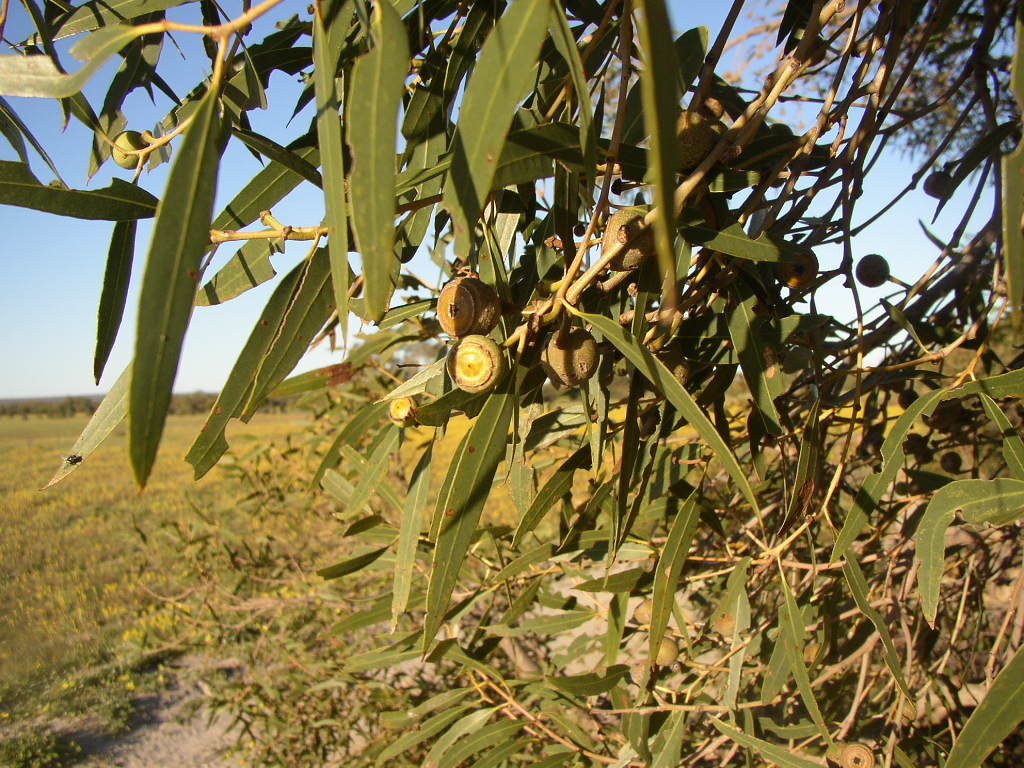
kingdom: Plantae
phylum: Tracheophyta
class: Magnoliopsida
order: Myrtales
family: Myrtaceae
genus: Eucalyptus
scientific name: Eucalyptus todtiana
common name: Coastal blackbutt
